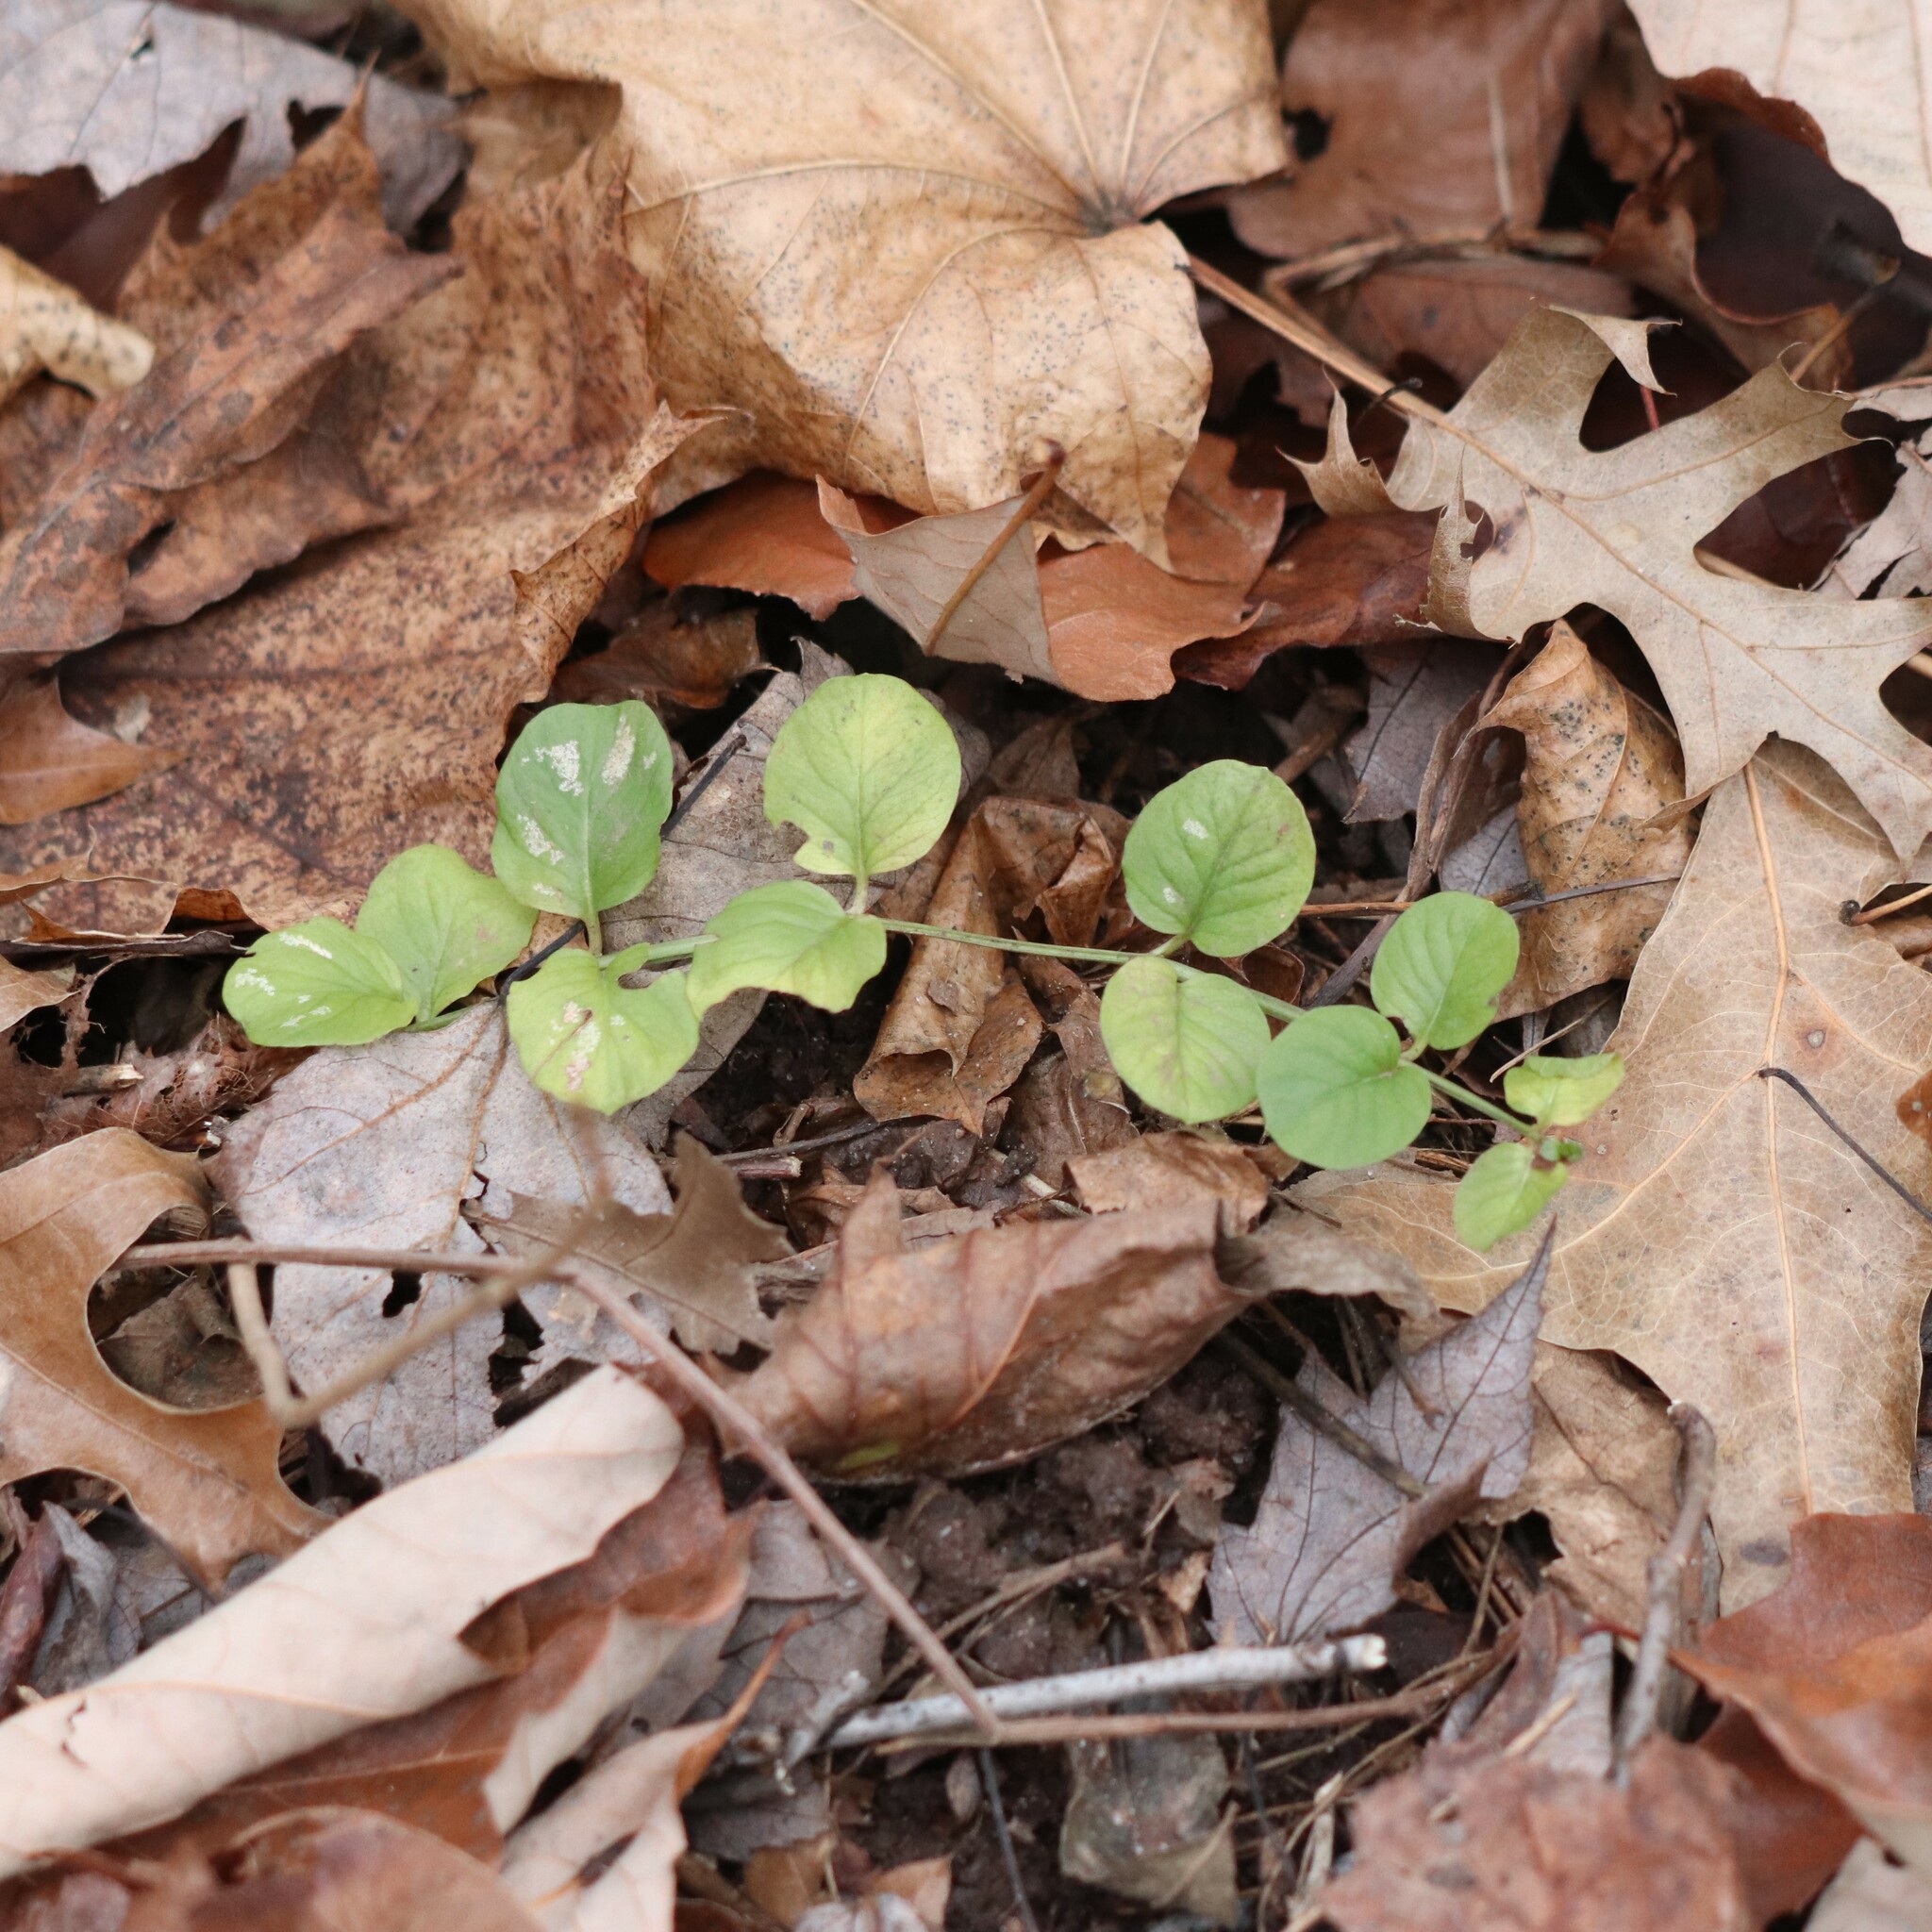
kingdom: Plantae
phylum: Tracheophyta
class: Magnoliopsida
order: Ericales
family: Primulaceae
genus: Lysimachia
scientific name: Lysimachia nummularia
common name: Moneywort
